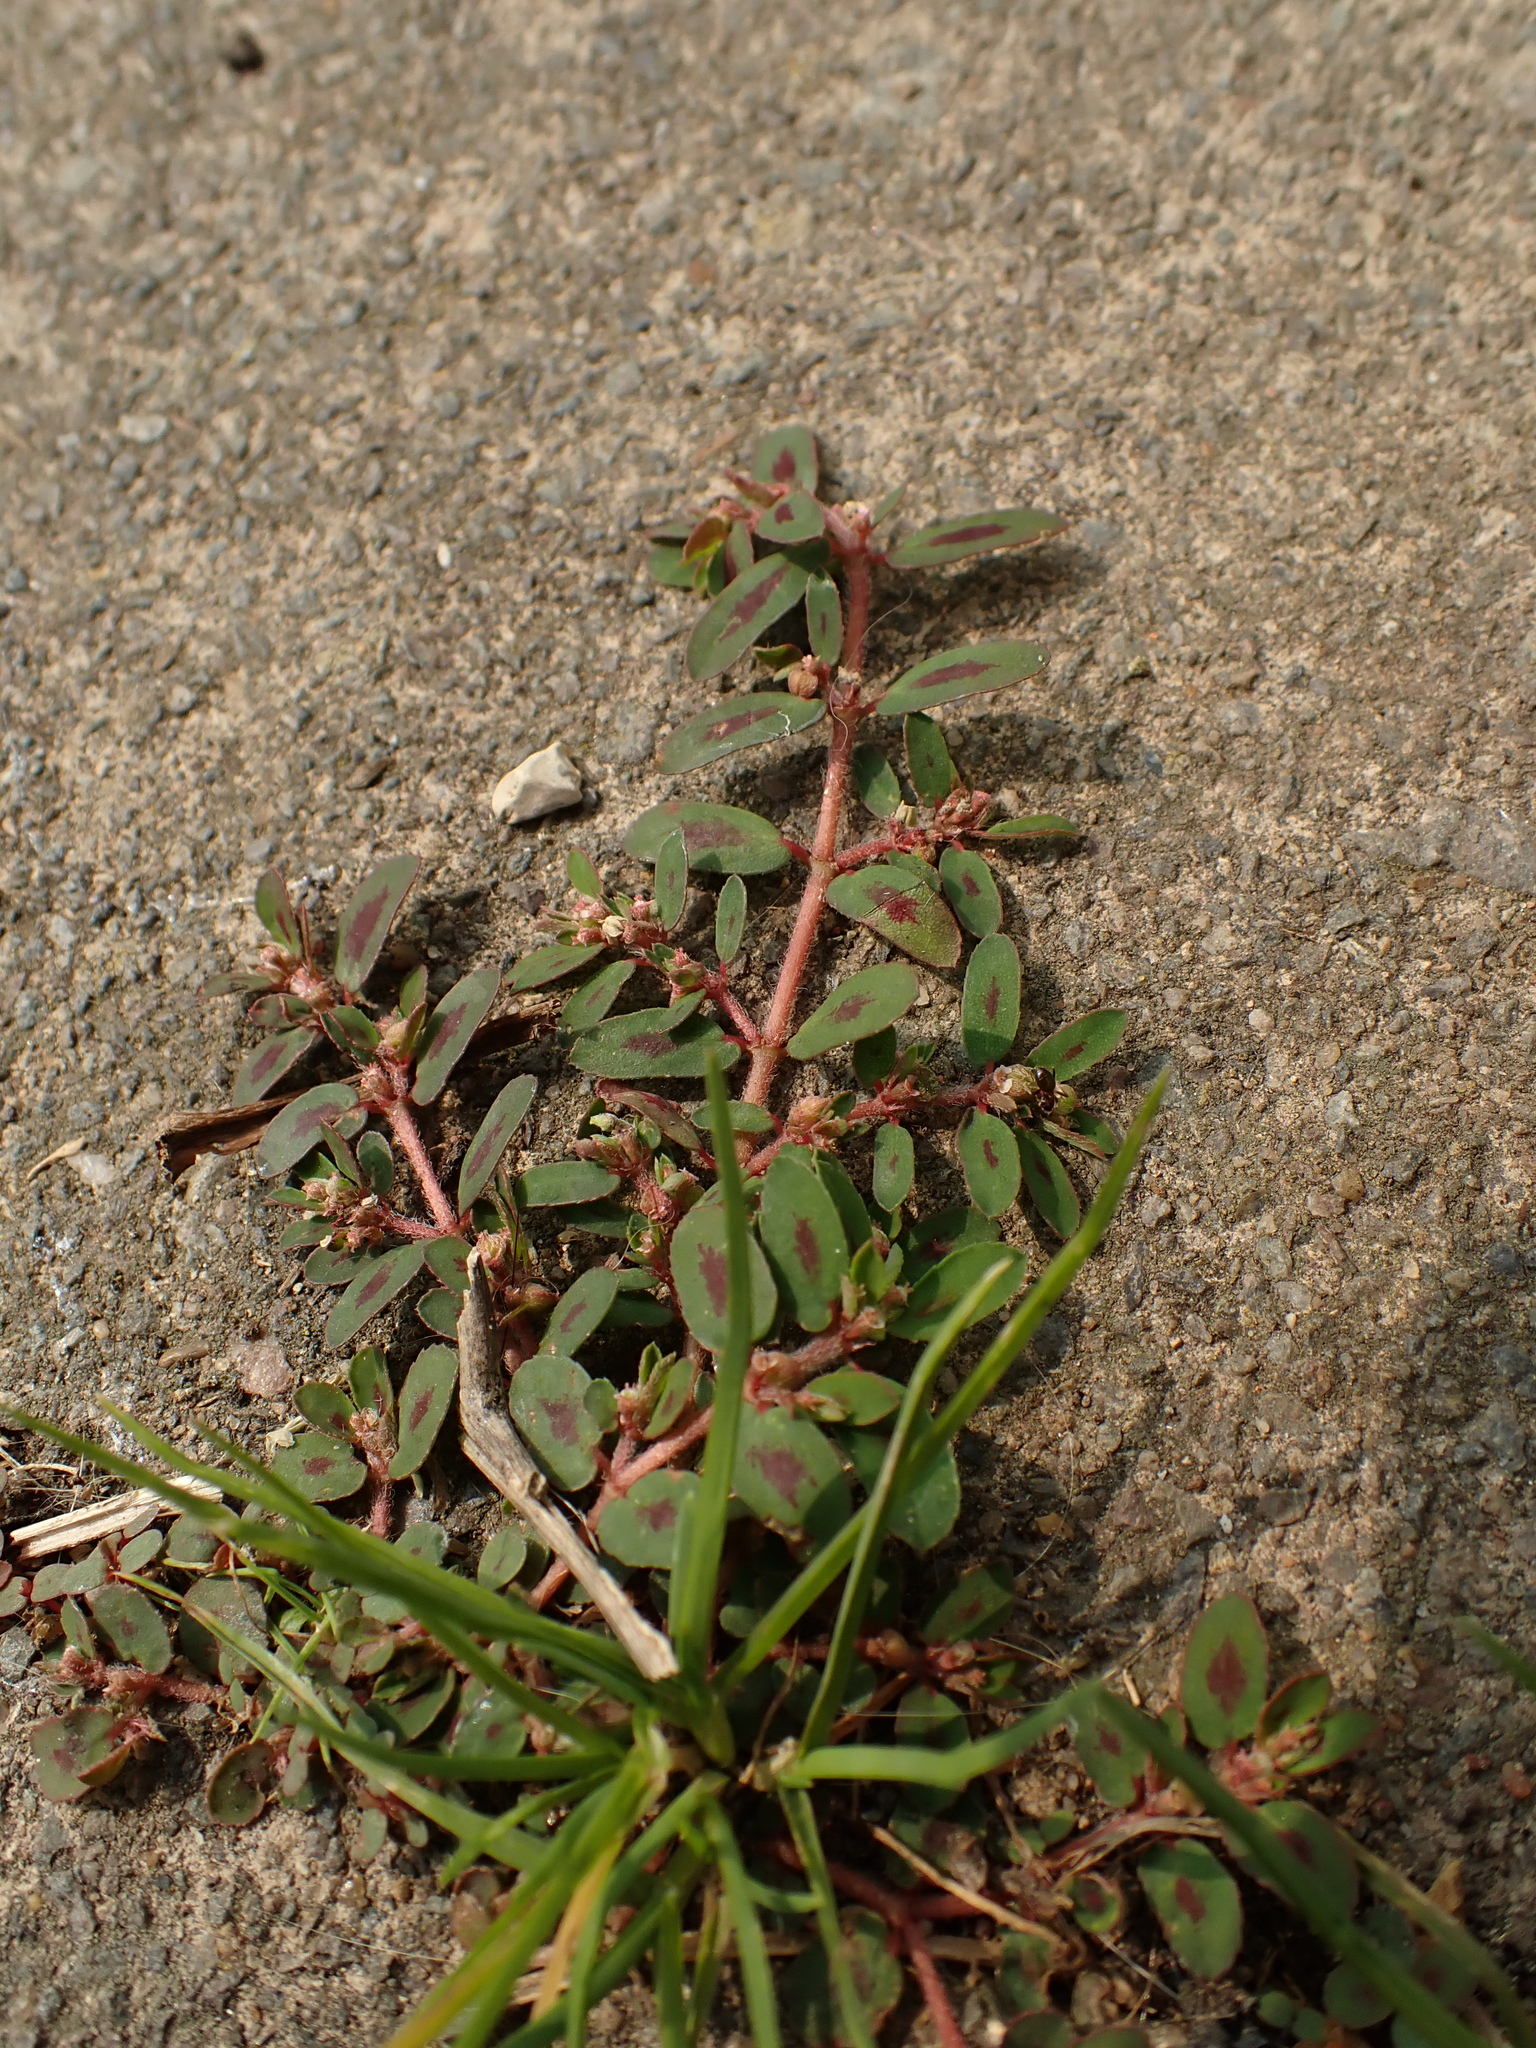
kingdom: Plantae
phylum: Tracheophyta
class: Magnoliopsida
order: Malpighiales
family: Euphorbiaceae
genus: Euphorbia
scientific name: Euphorbia maculata
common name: Spotted spurge
